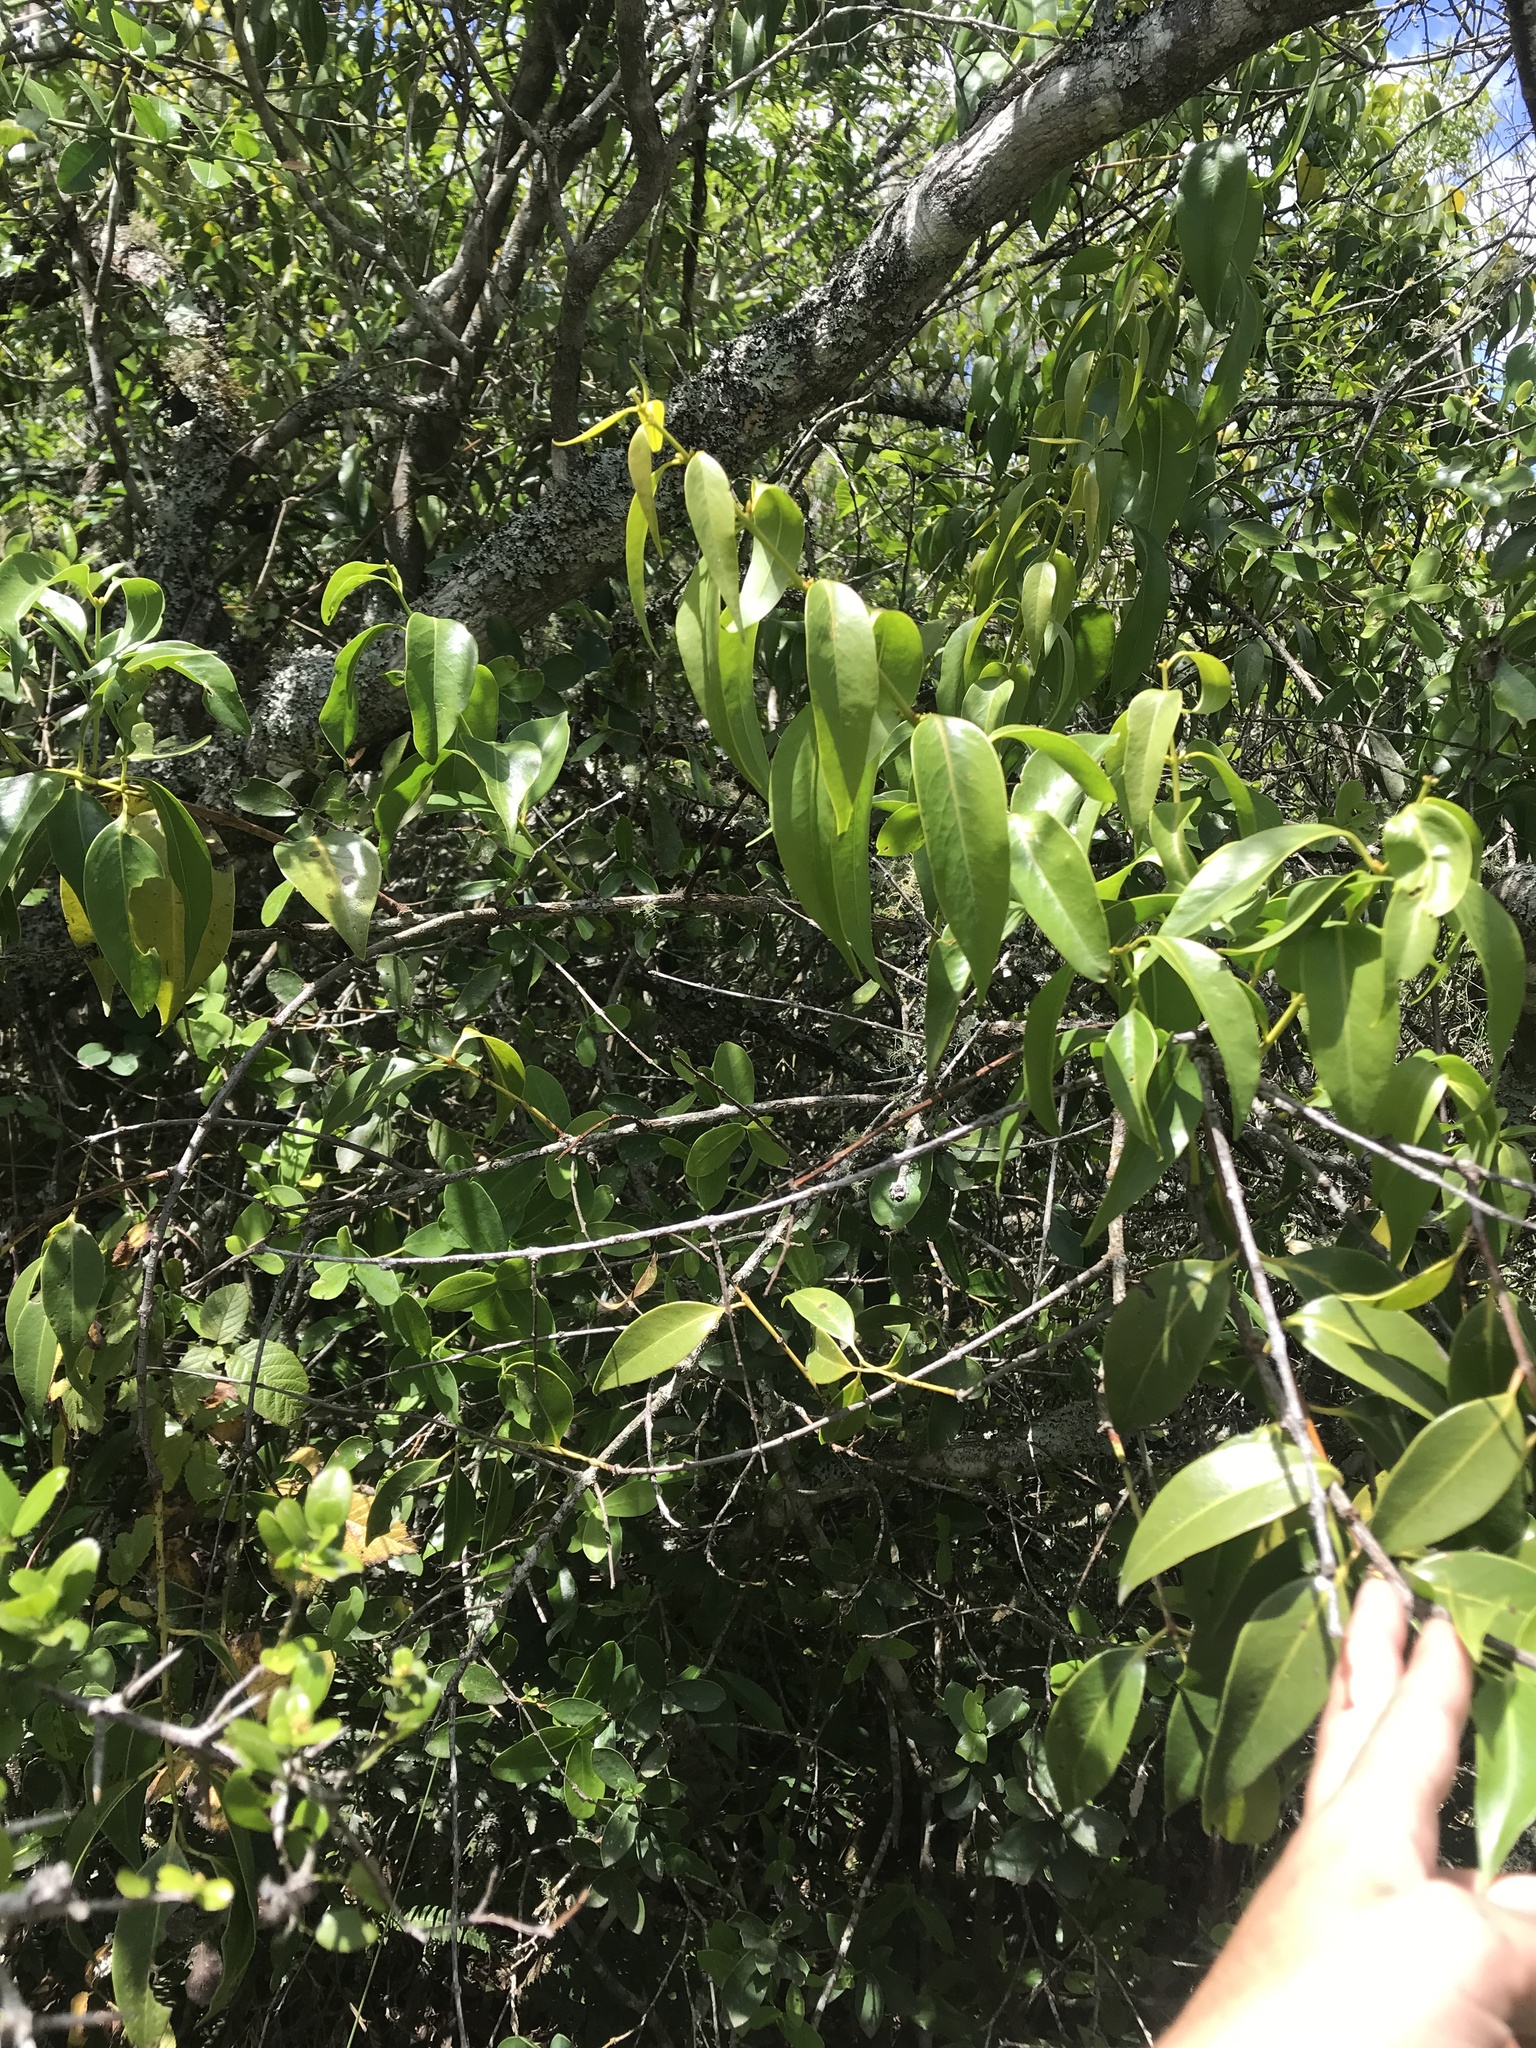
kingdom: Plantae
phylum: Tracheophyta
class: Magnoliopsida
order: Santalales
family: Loranthaceae
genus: Tripodanthus
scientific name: Tripodanthus acutifolius
